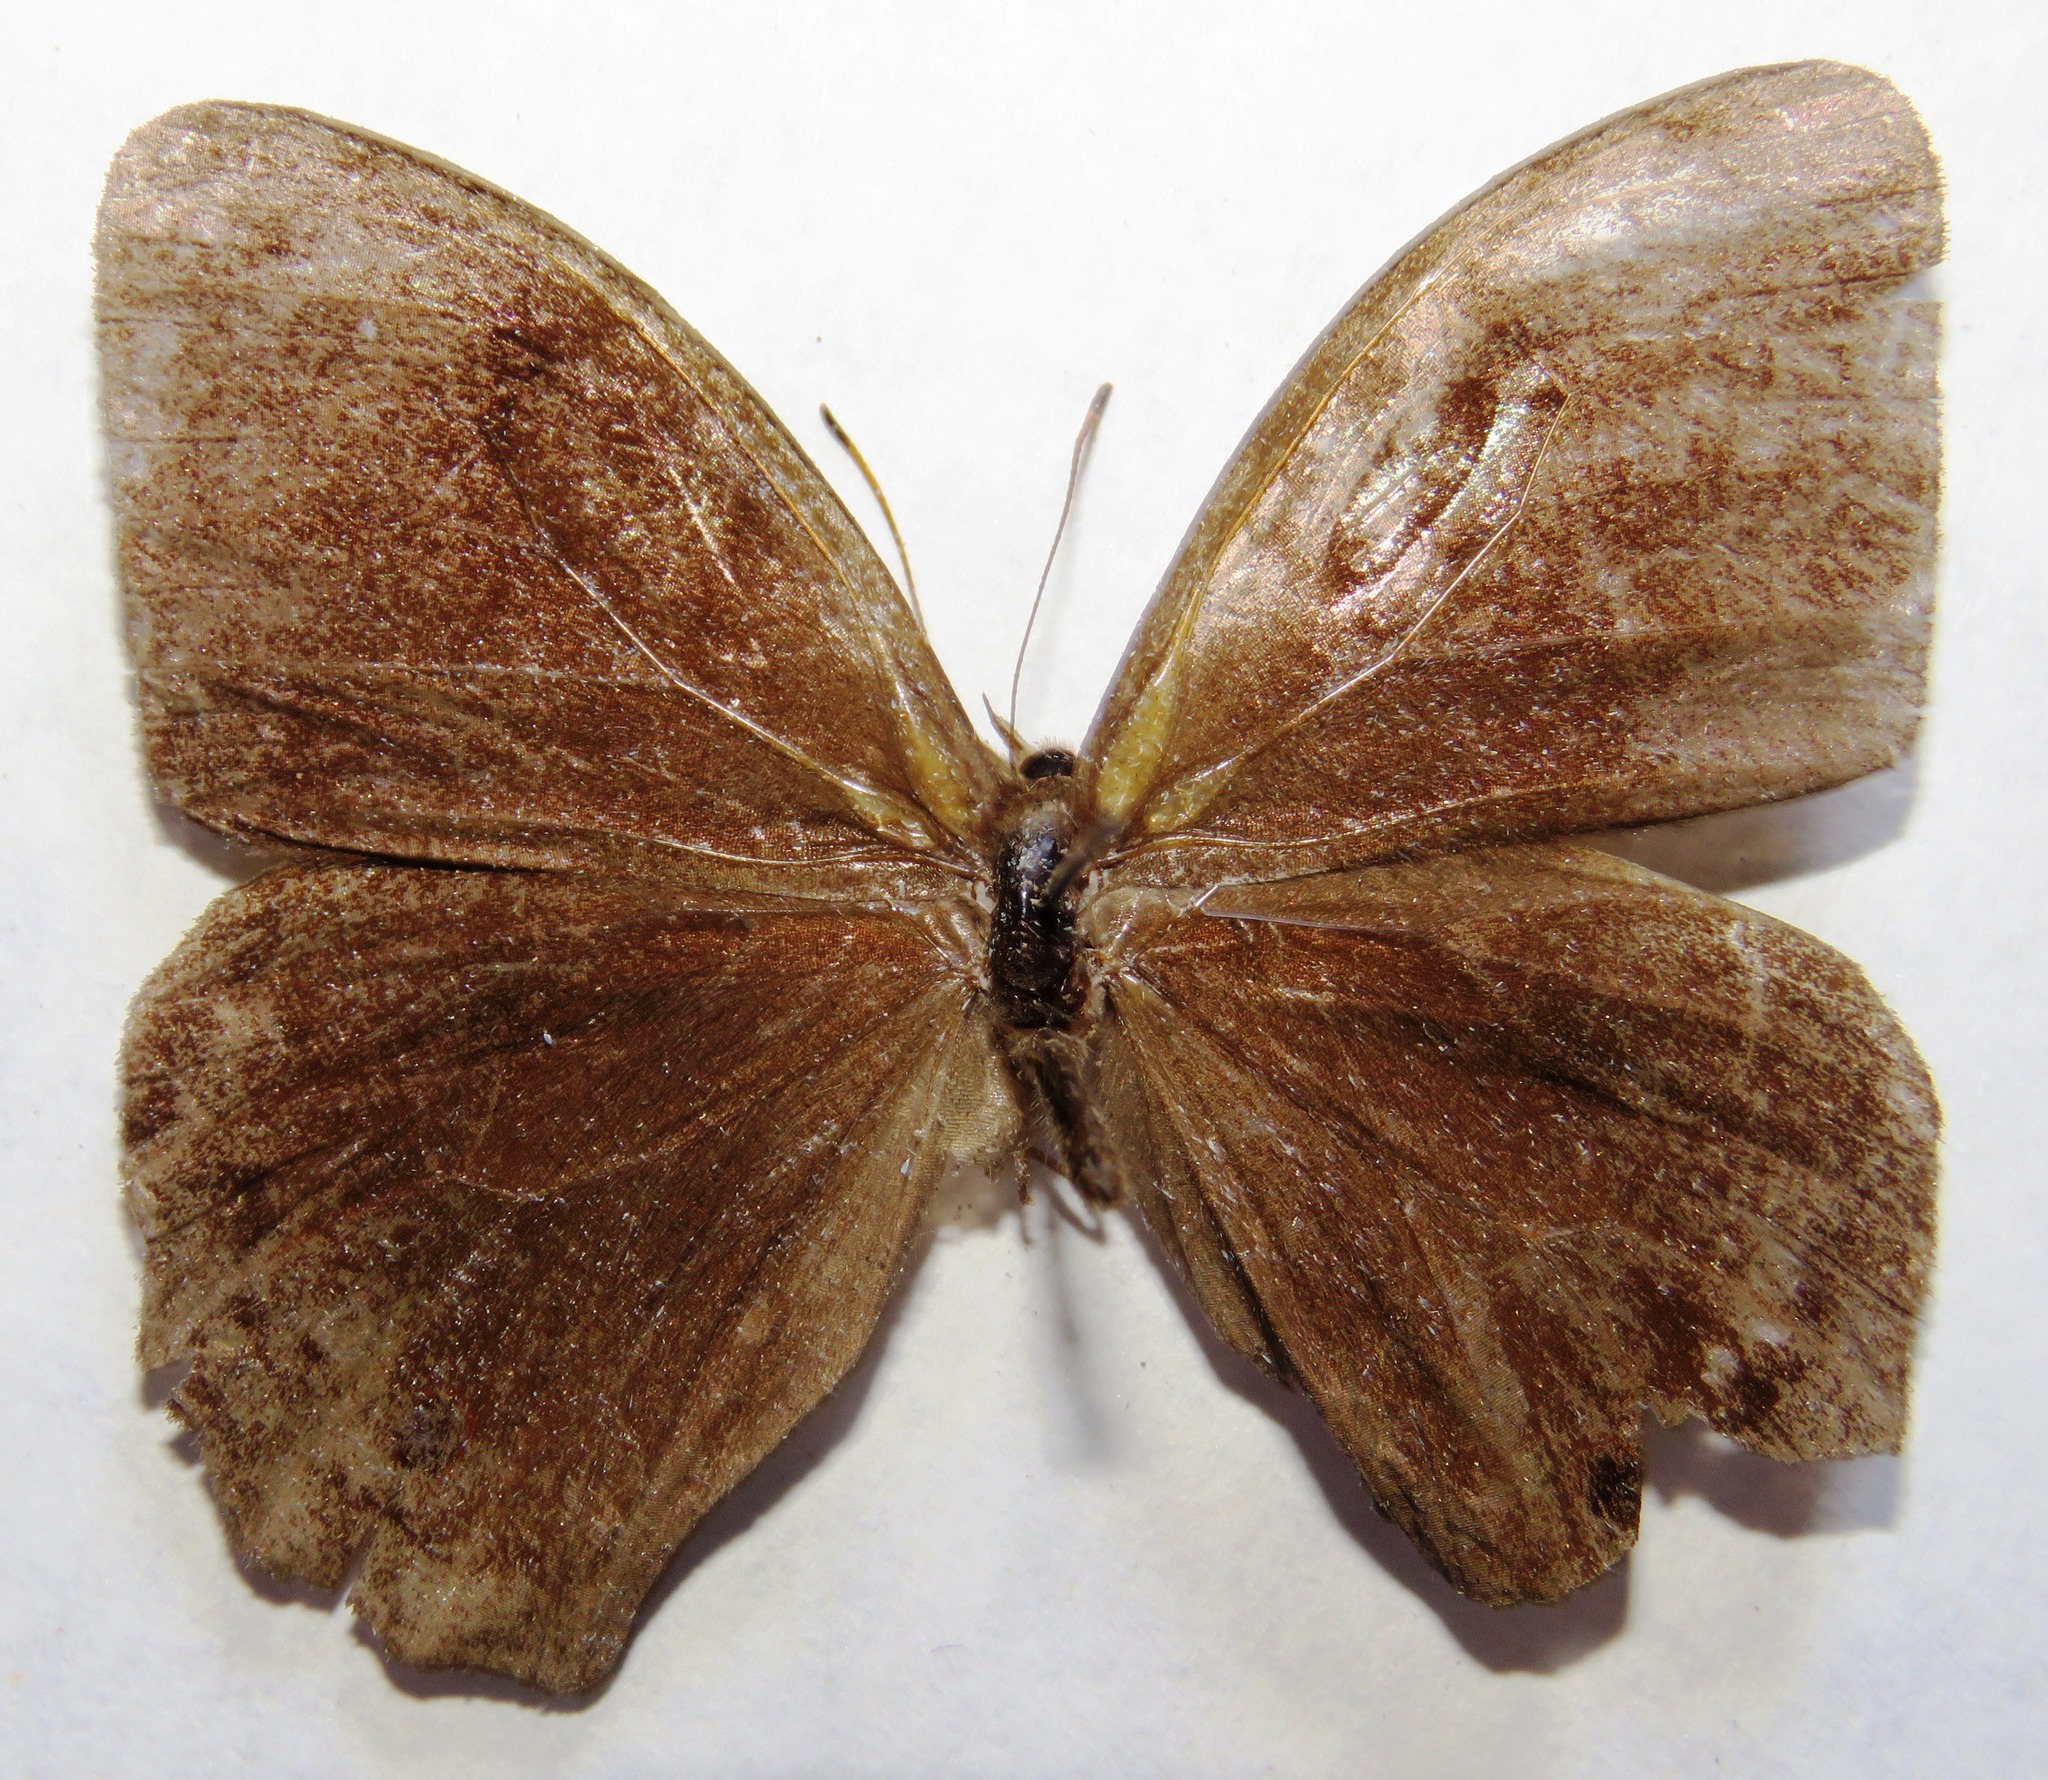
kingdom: Animalia
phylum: Arthropoda
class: Insecta
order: Lepidoptera
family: Nymphalidae
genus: Satyrotaygetis
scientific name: Satyrotaygetis satyrina
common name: Wide-bordered satyr
